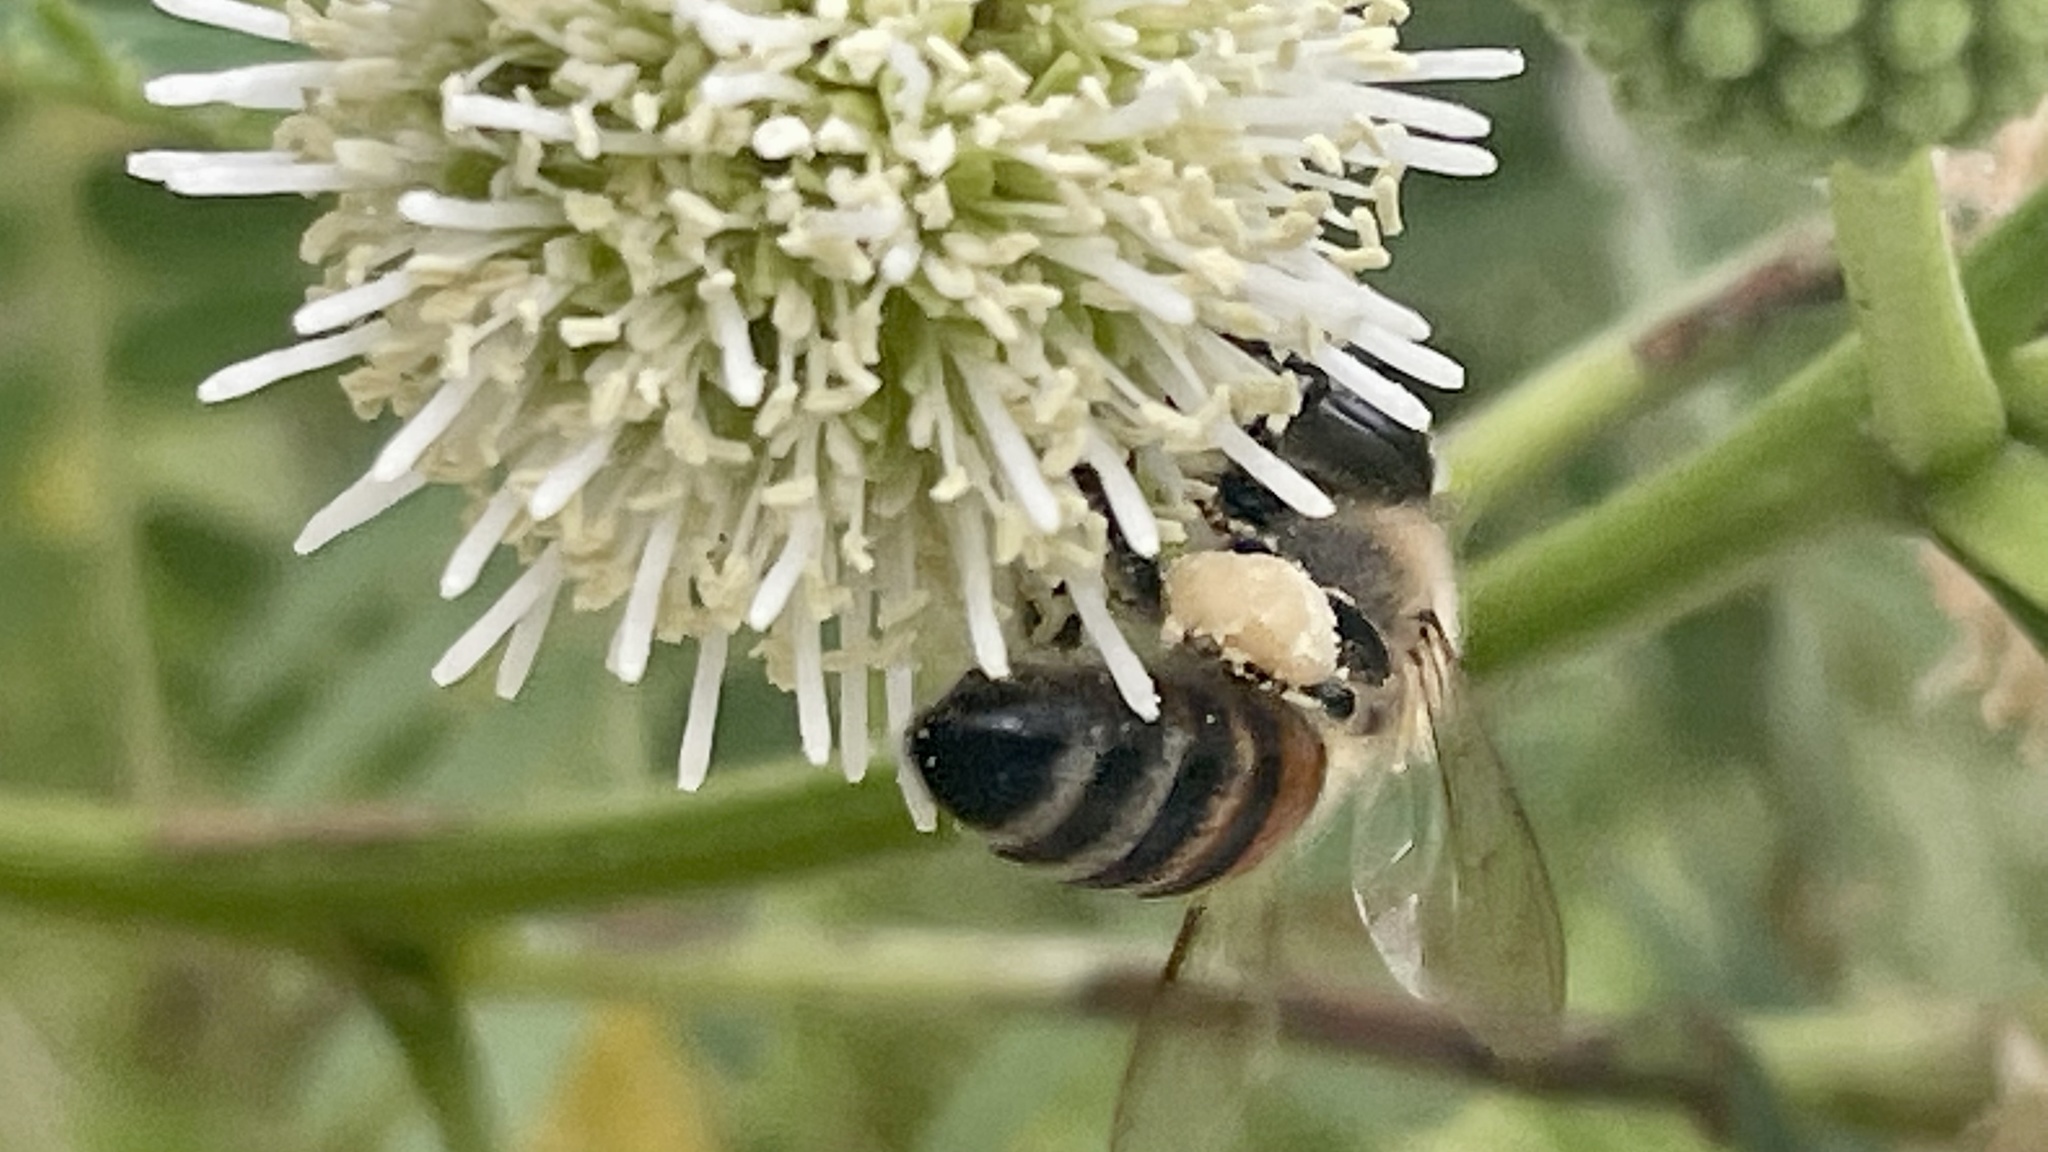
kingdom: Animalia
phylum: Arthropoda
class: Insecta
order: Hymenoptera
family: Apidae
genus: Apis
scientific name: Apis mellifera
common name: Honey bee
